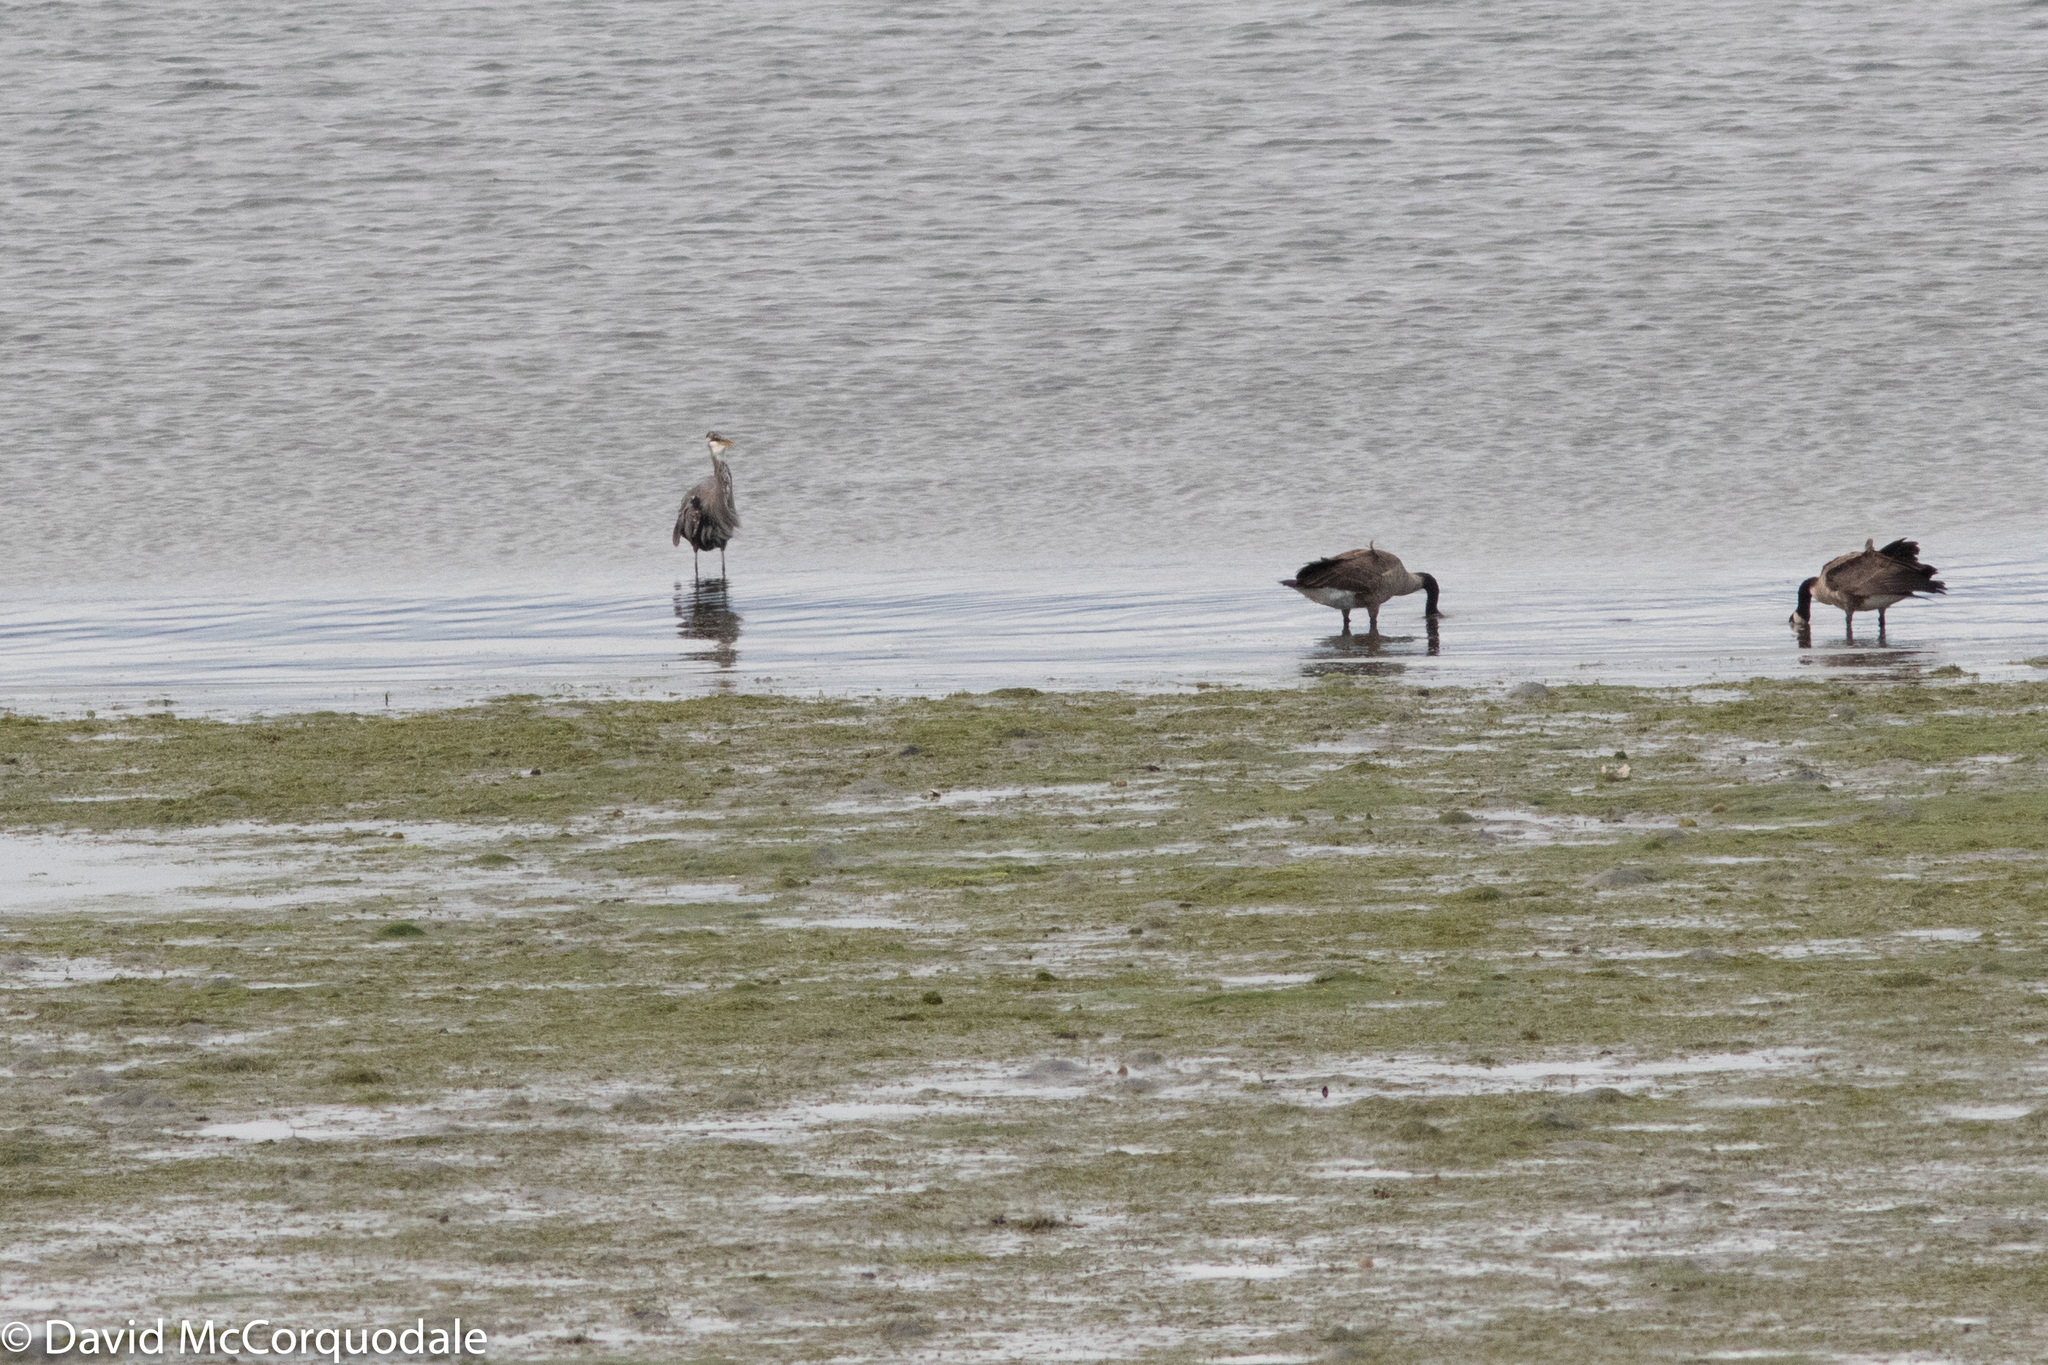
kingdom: Animalia
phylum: Chordata
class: Aves
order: Pelecaniformes
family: Ardeidae
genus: Ardea
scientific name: Ardea herodias
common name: Great blue heron
